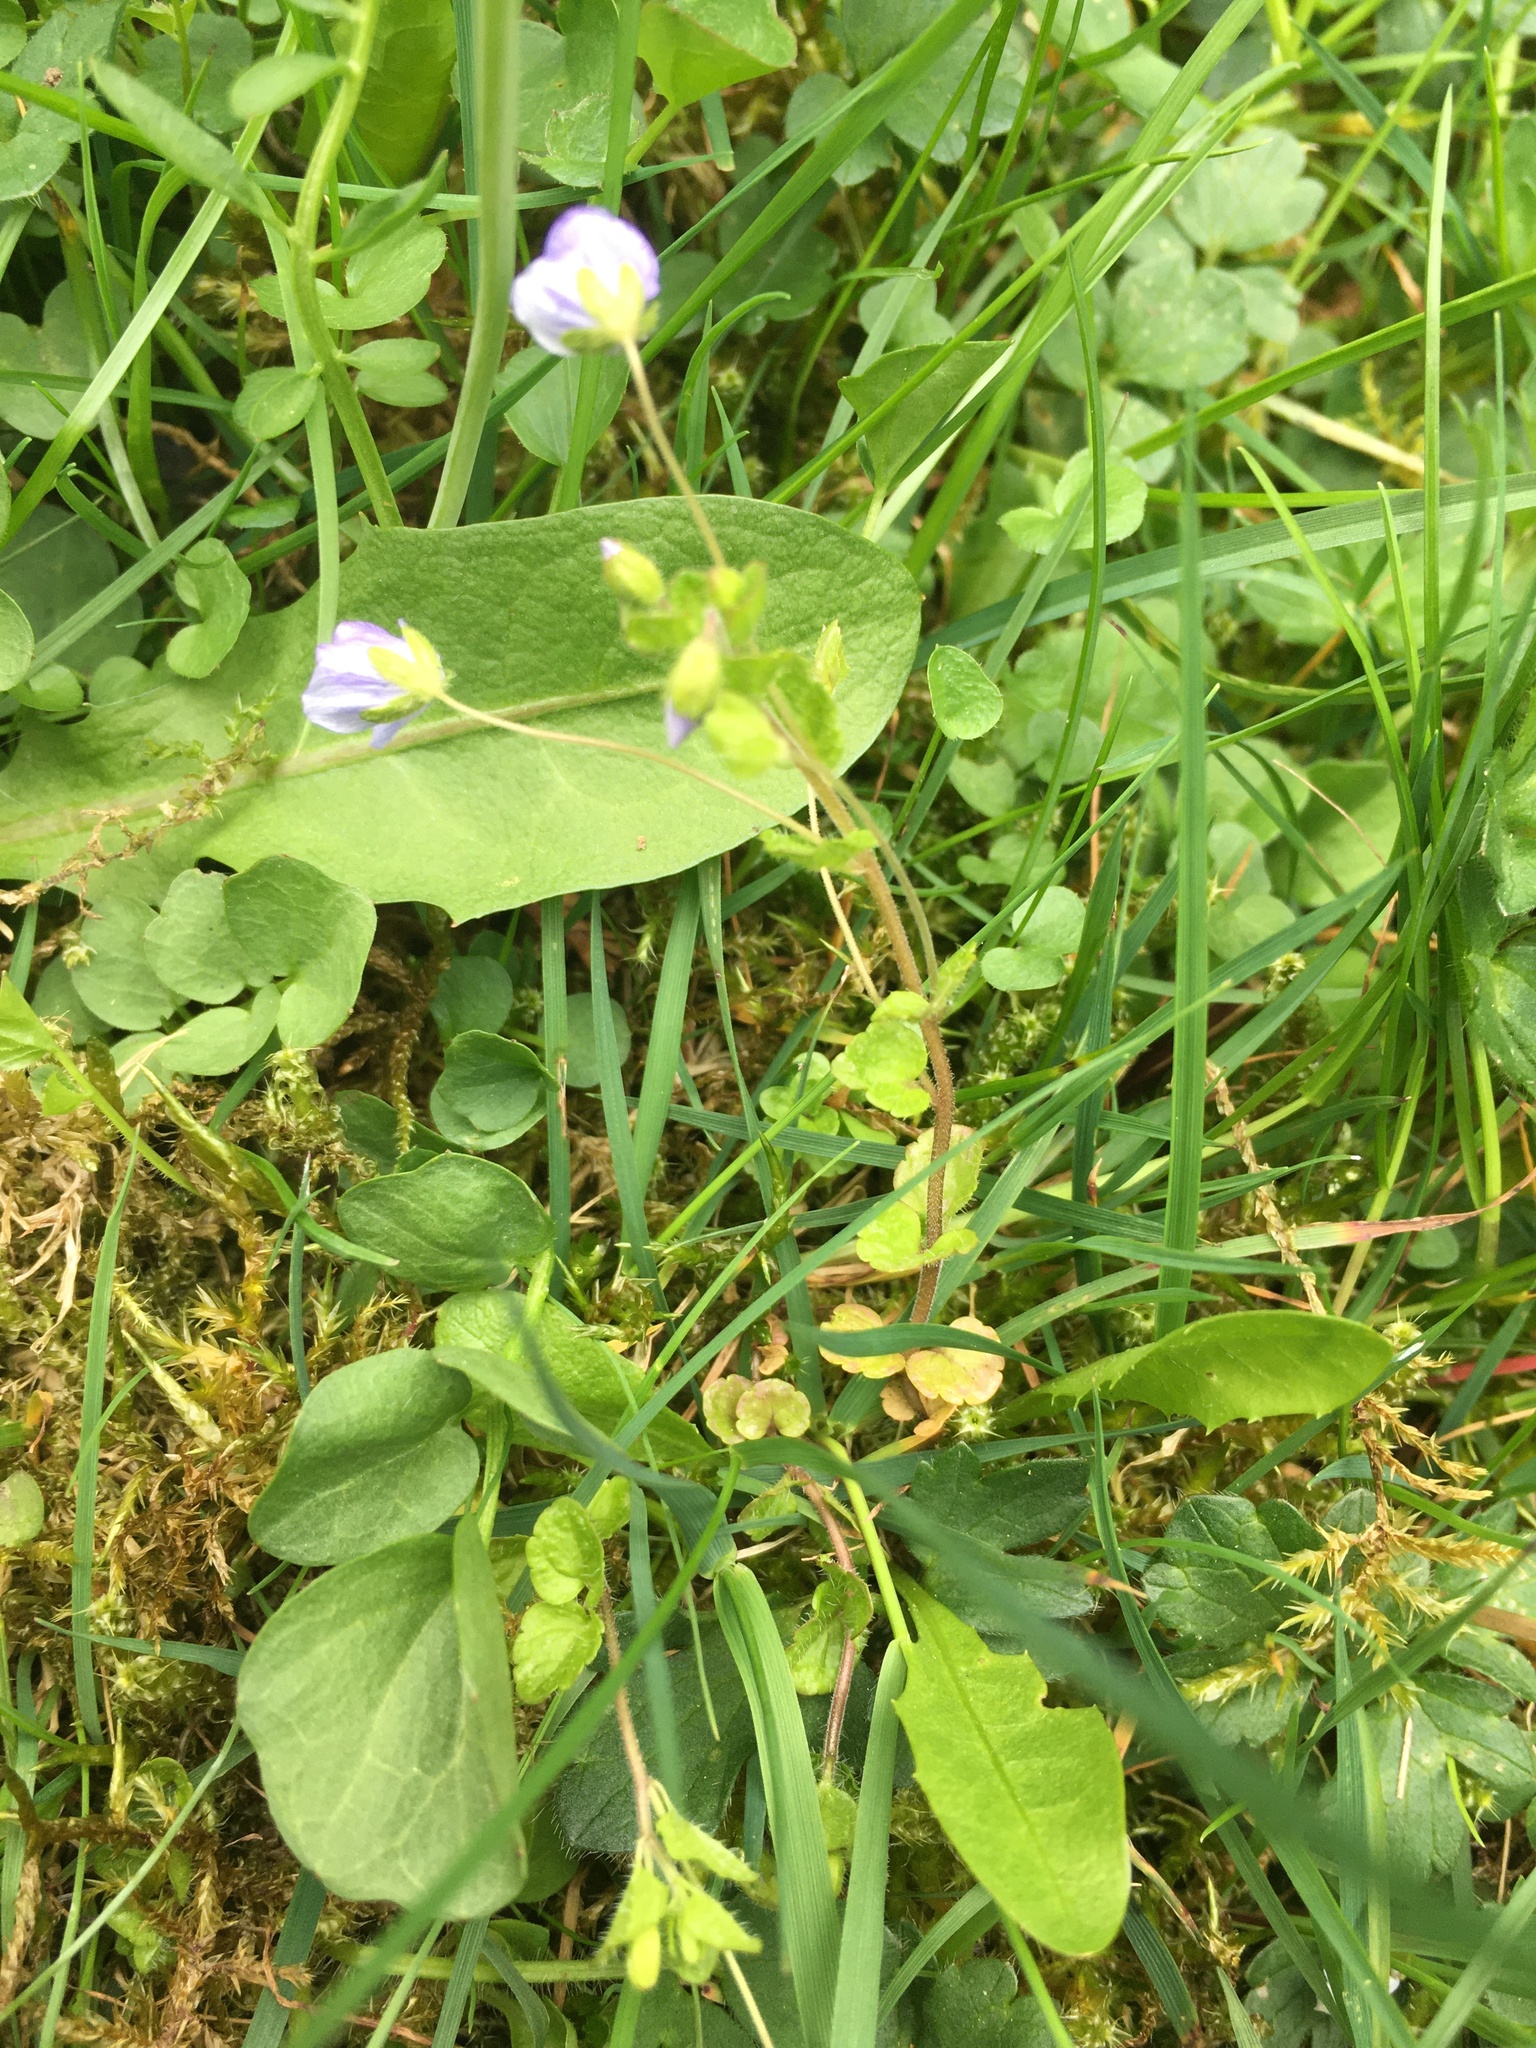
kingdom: Plantae
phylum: Tracheophyta
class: Magnoliopsida
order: Lamiales
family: Plantaginaceae
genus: Veronica
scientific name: Veronica filiformis
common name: Slender speedwell
